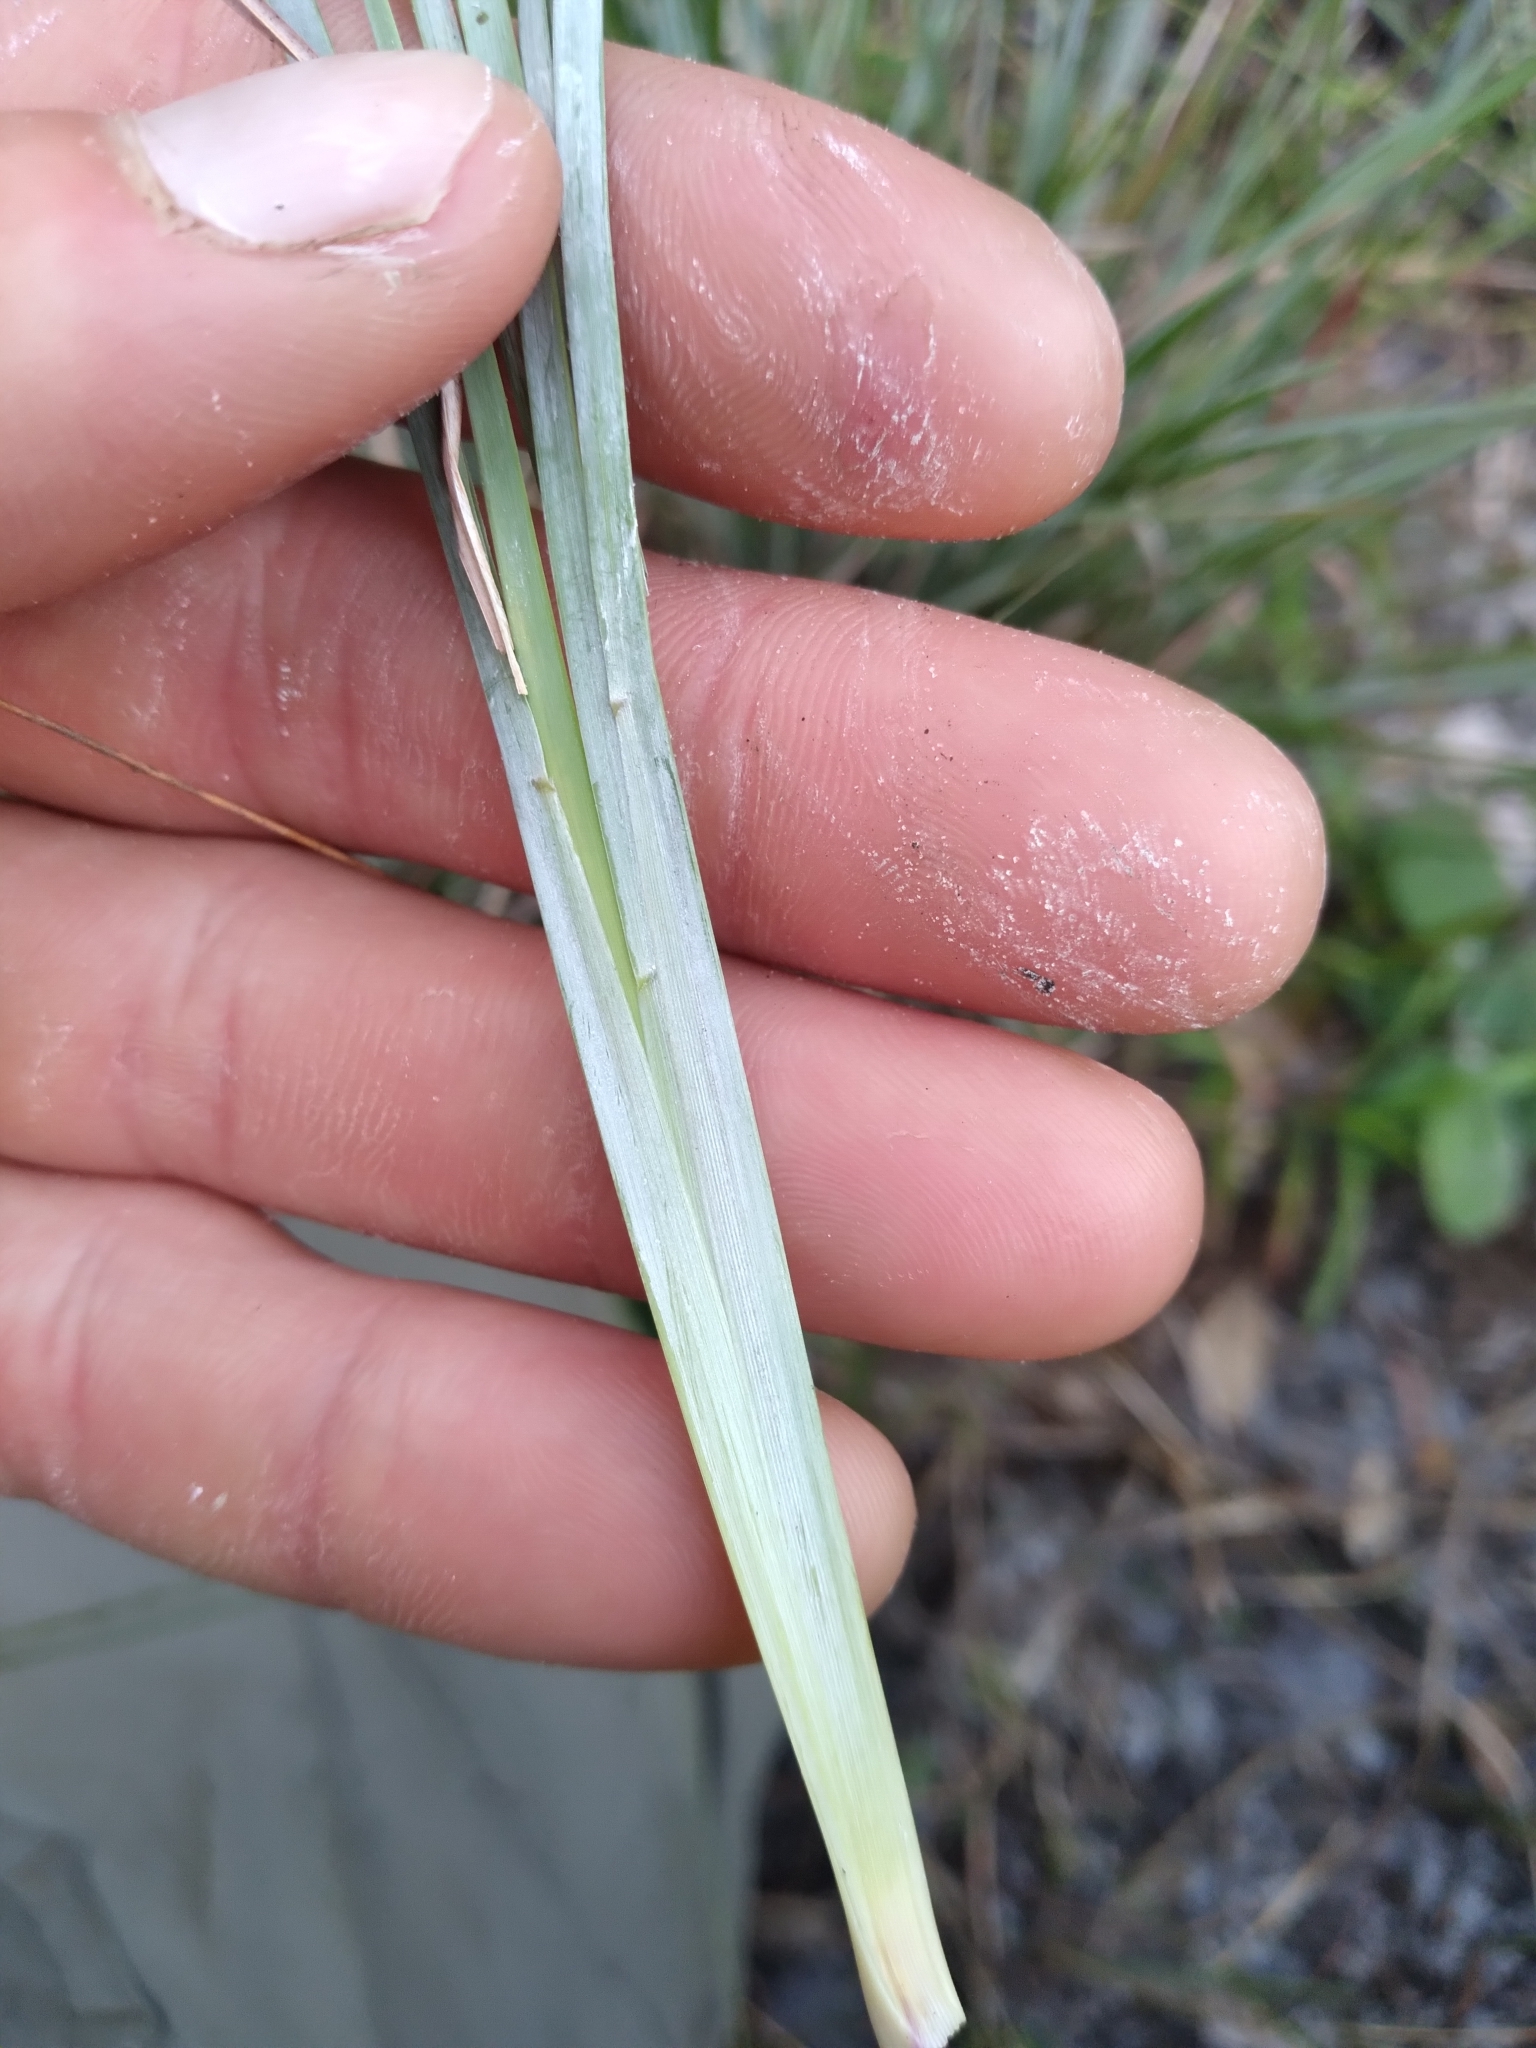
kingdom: Plantae
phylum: Tracheophyta
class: Liliopsida
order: Poales
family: Poaceae
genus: Andropogon
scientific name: Andropogon capillipes
